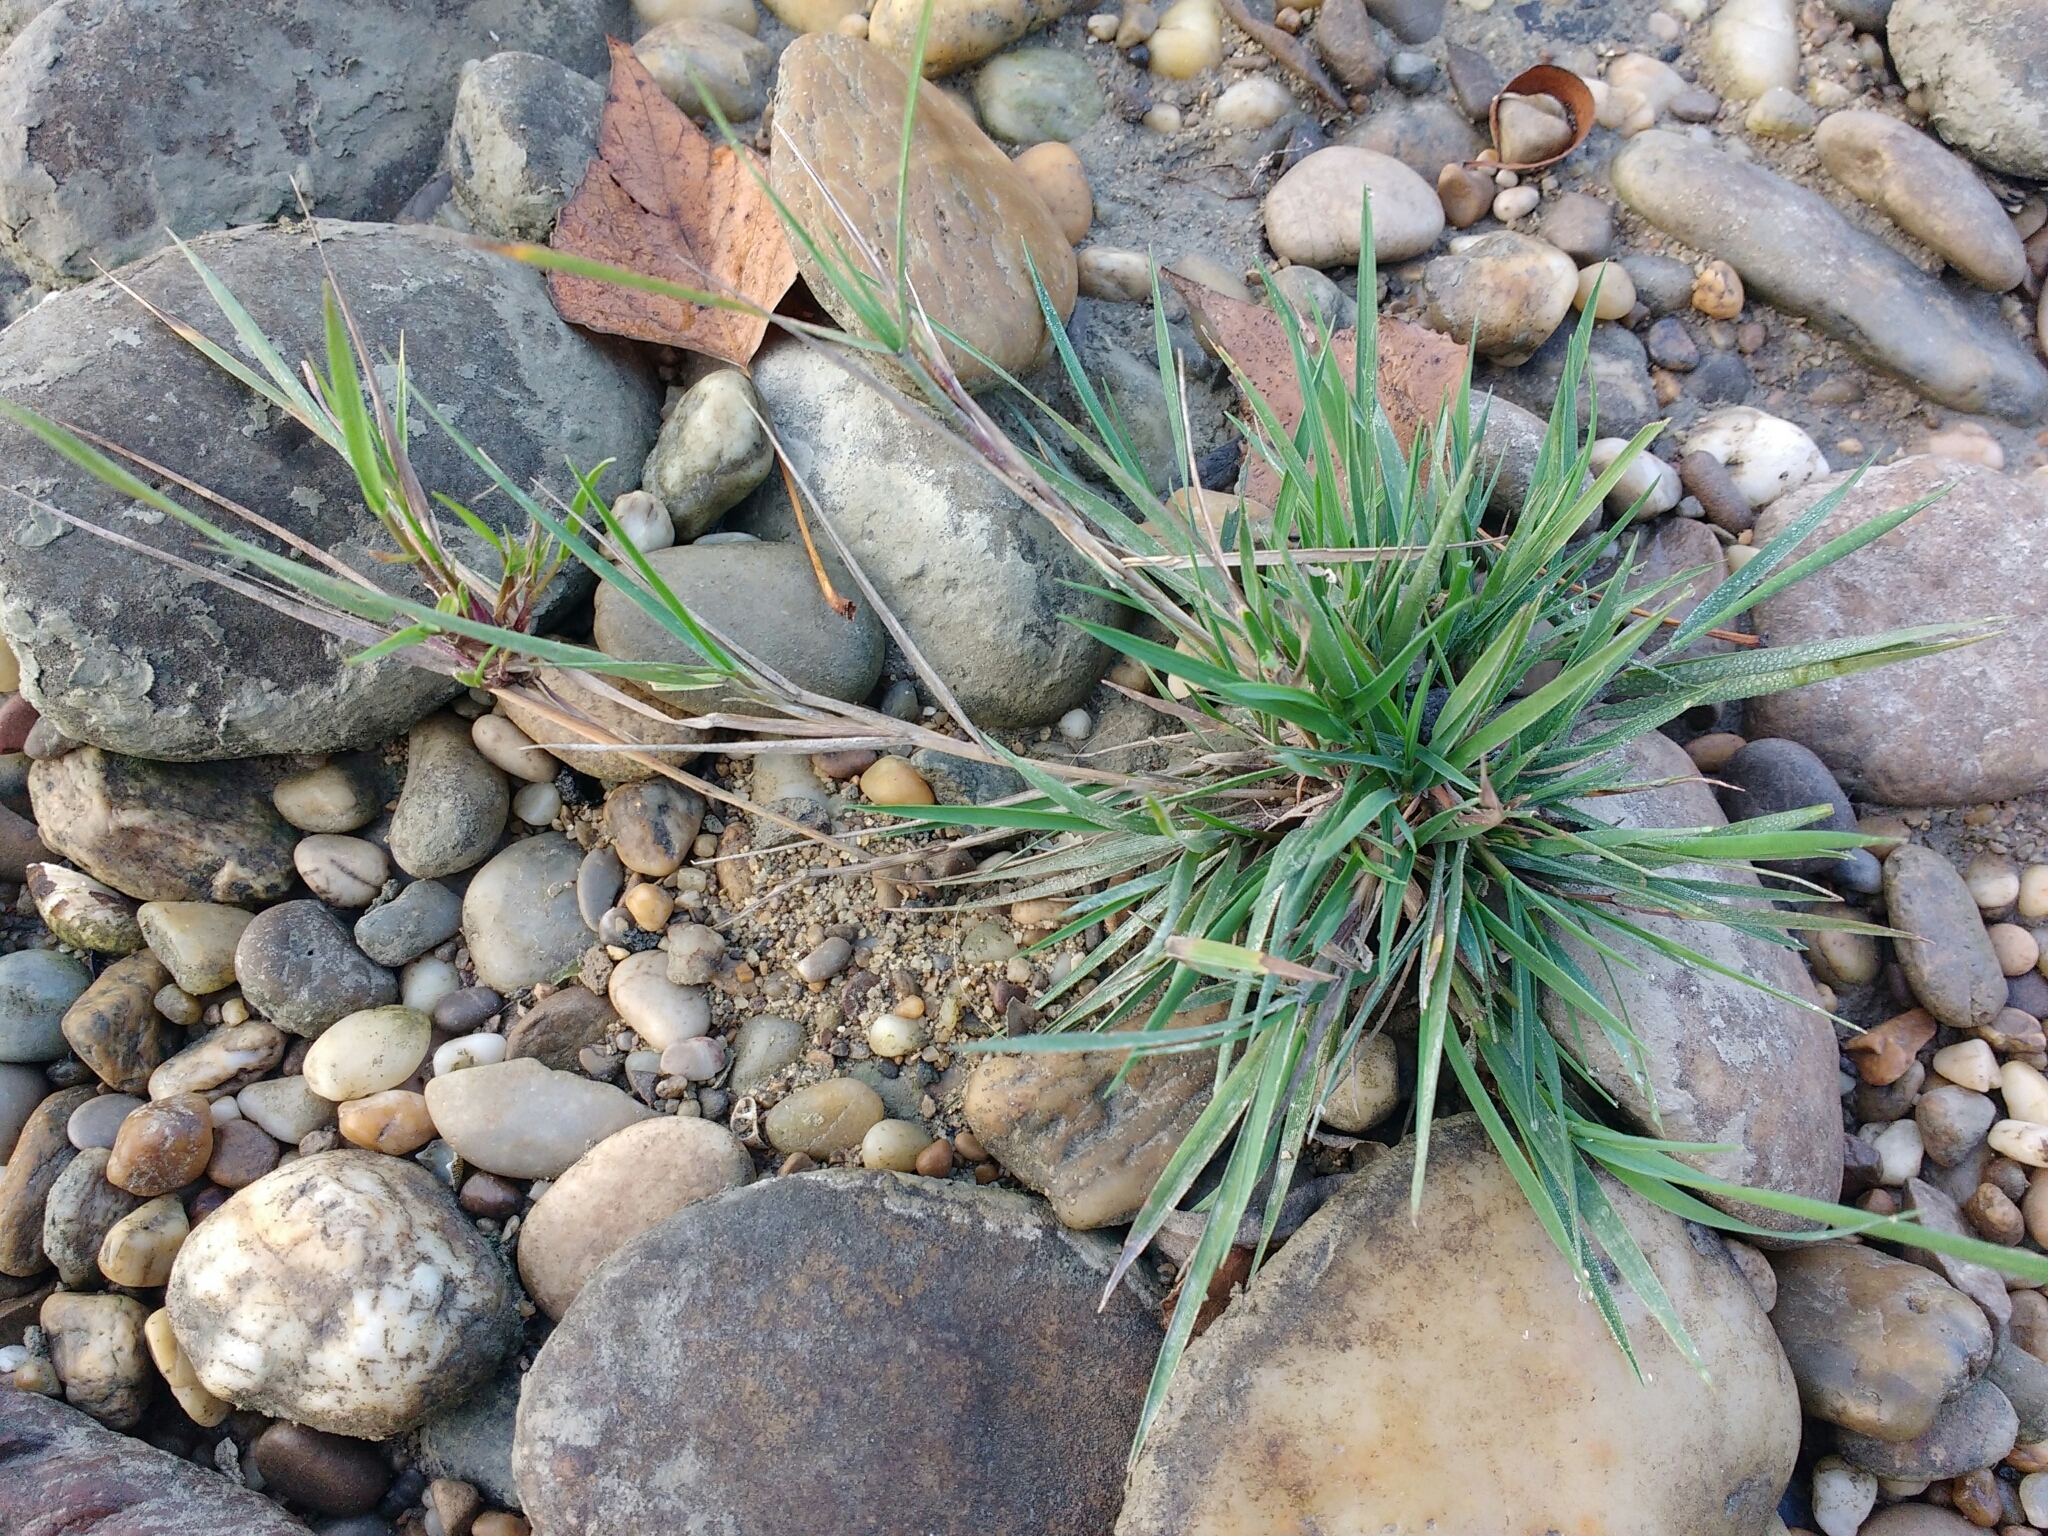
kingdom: Plantae
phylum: Tracheophyta
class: Liliopsida
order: Poales
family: Poaceae
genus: Agrostis
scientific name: Agrostis stolonifera
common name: Creeping bentgrass
